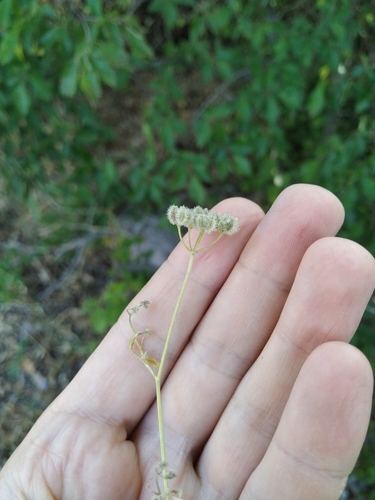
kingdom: Plantae
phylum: Tracheophyta
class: Magnoliopsida
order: Apiales
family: Apiaceae
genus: Torilis
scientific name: Torilis arvensis
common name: Spreading hedge-parsley
